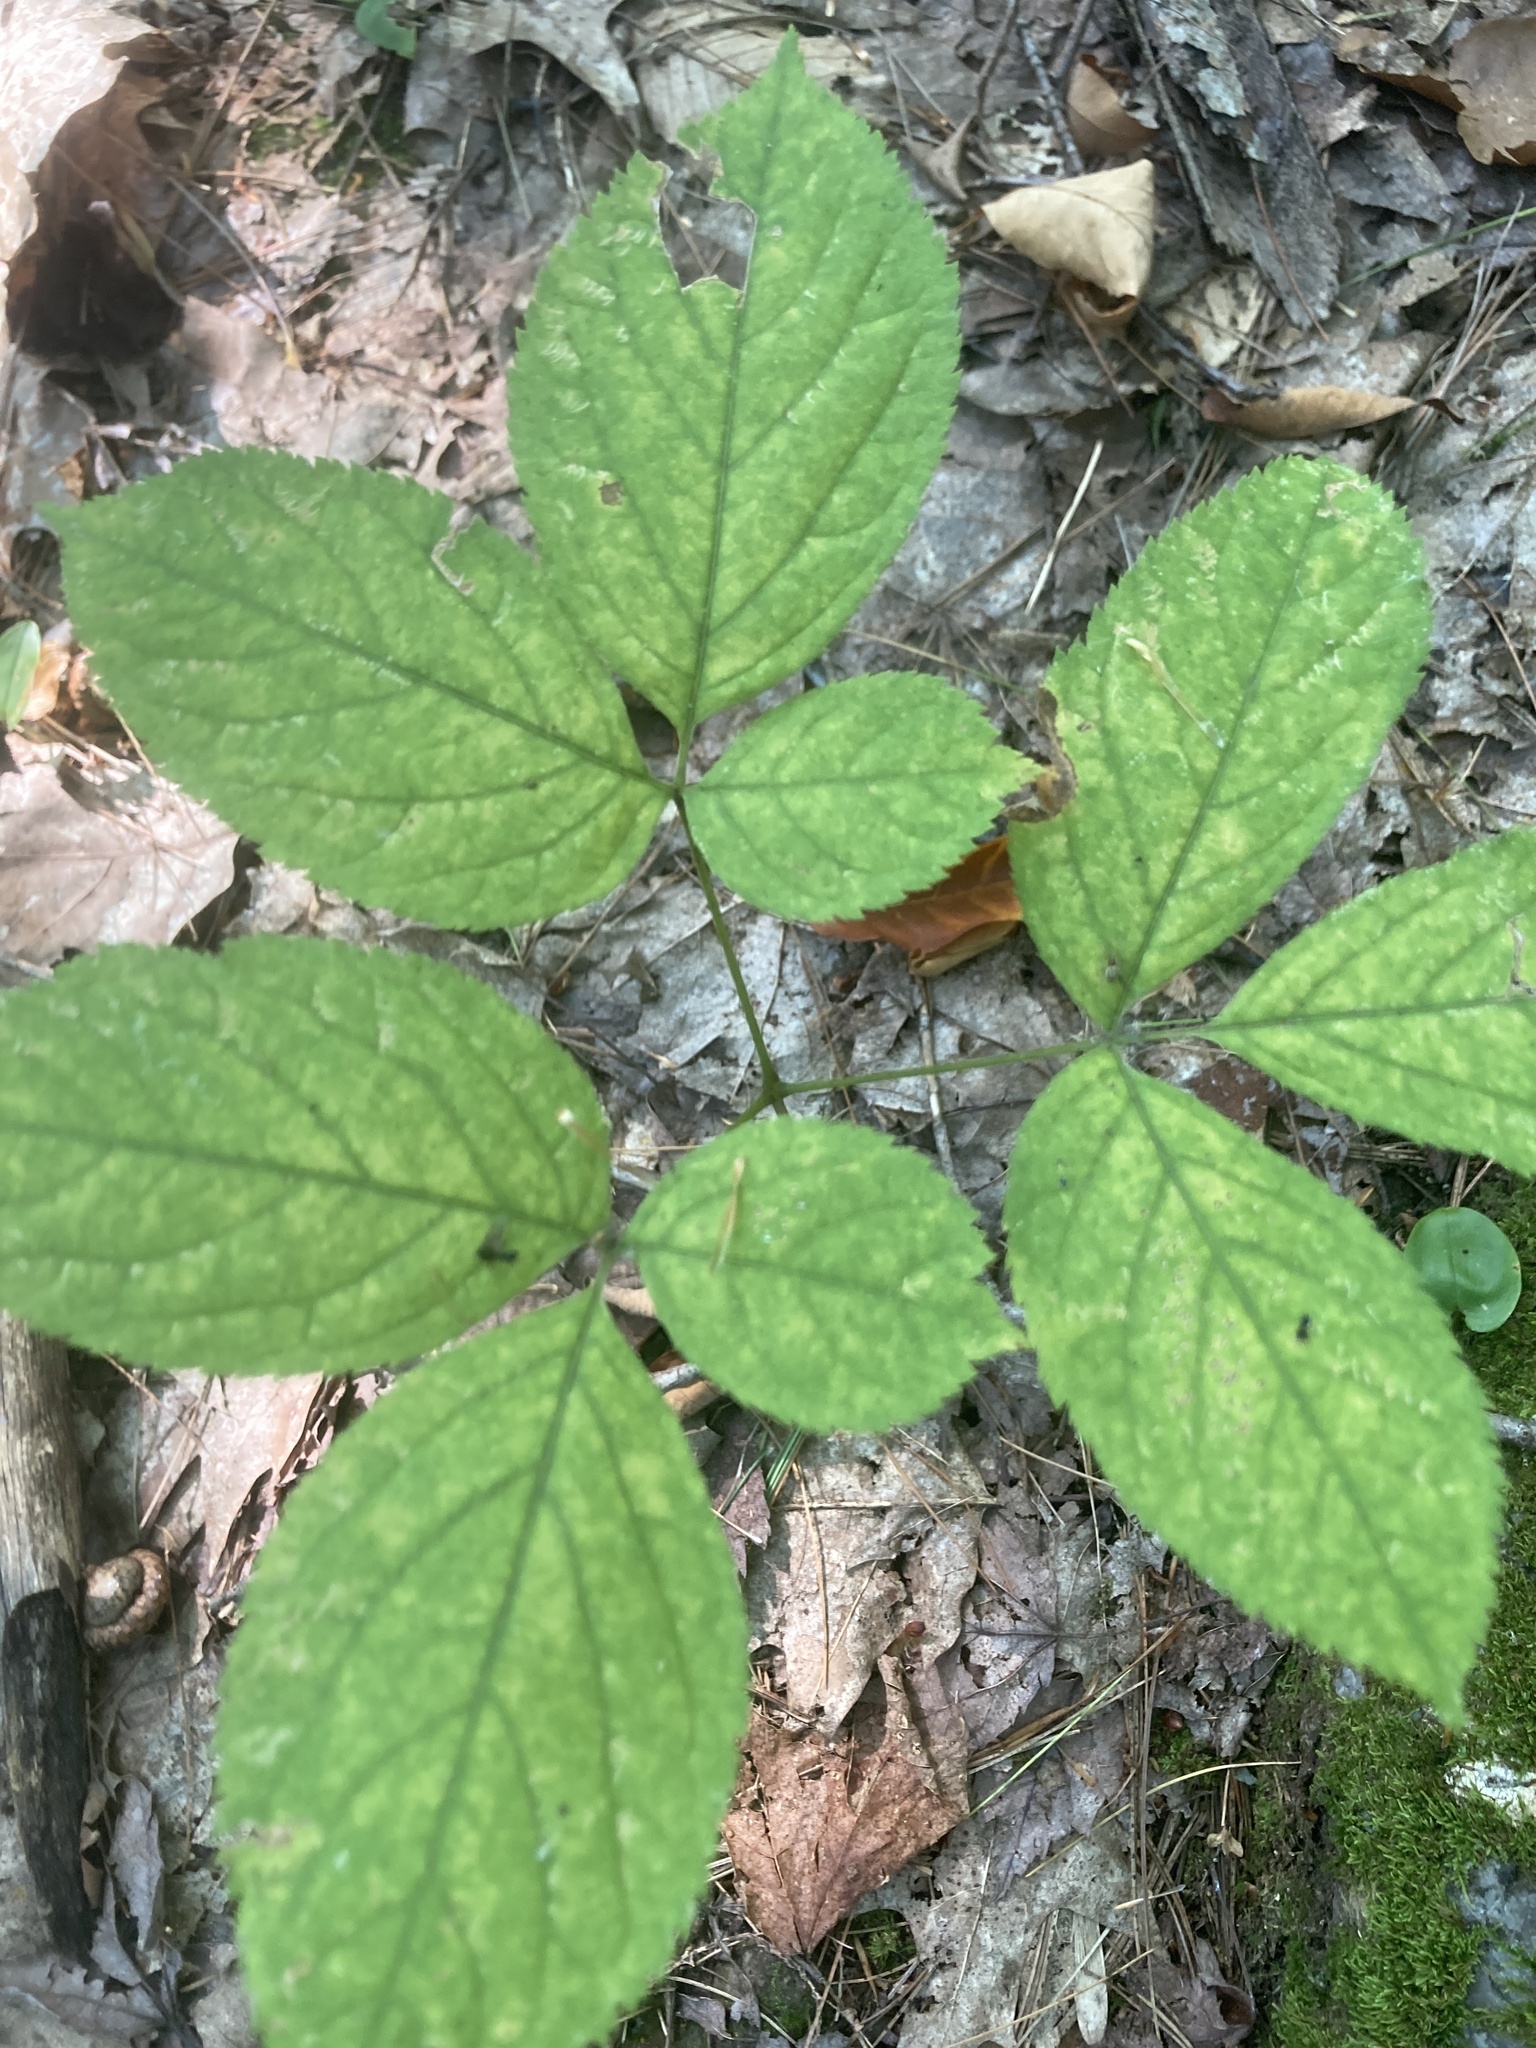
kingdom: Plantae
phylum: Tracheophyta
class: Magnoliopsida
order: Apiales
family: Araliaceae
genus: Aralia
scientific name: Aralia nudicaulis
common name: Wild sarsaparilla
